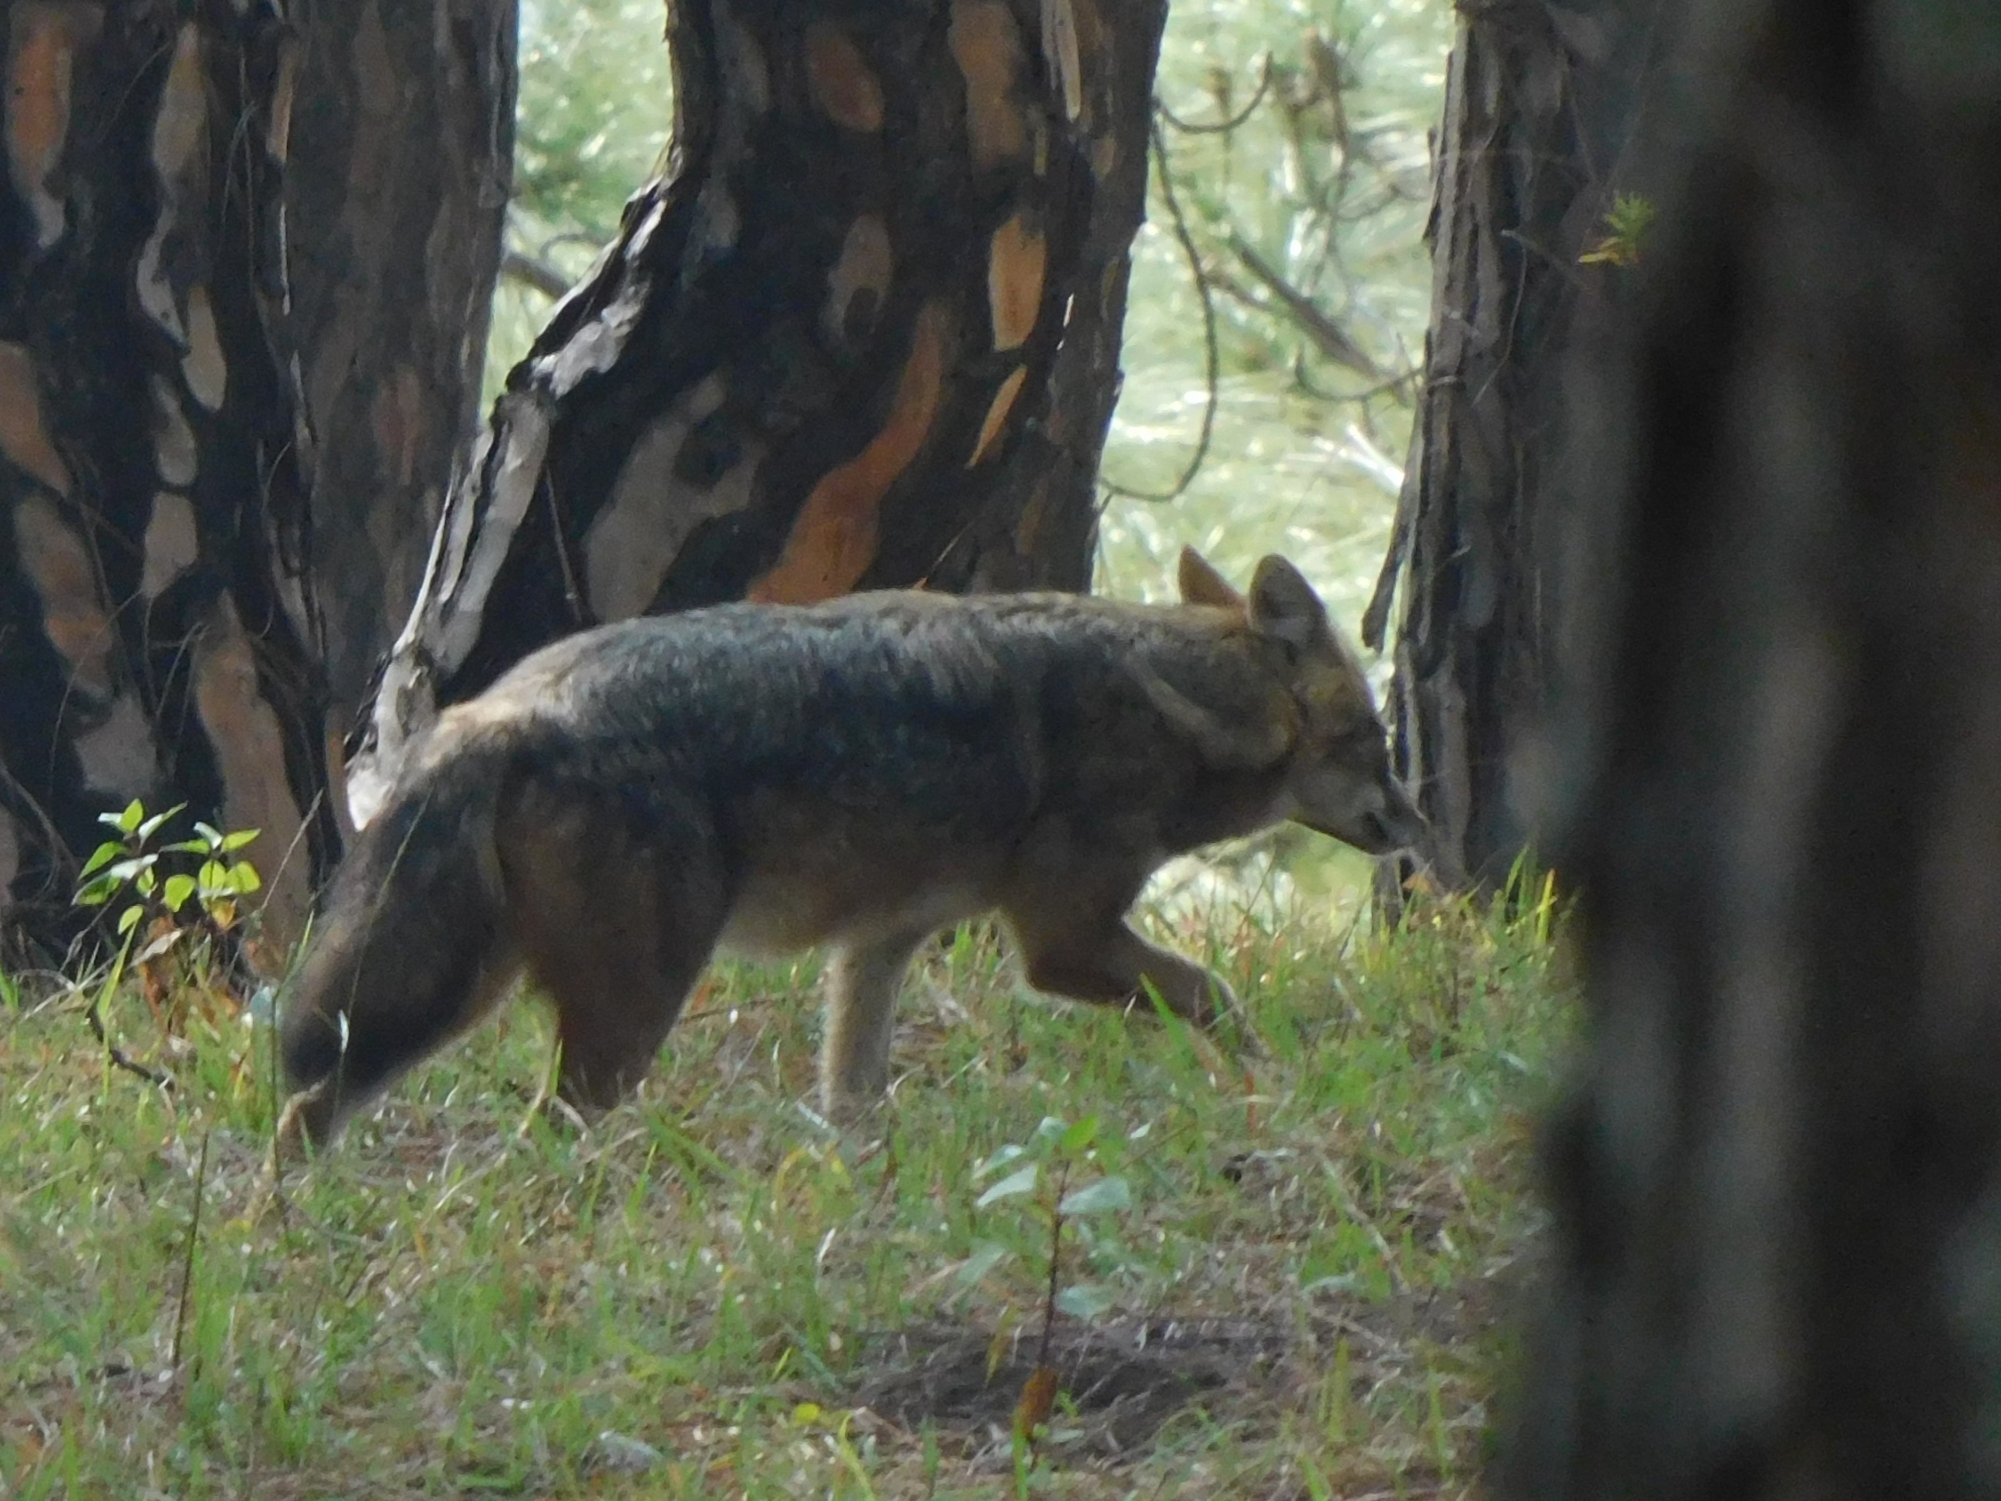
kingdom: Animalia
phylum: Chordata
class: Mammalia
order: Carnivora
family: Canidae
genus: Canis
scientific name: Canis aureus
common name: Golden jackal
